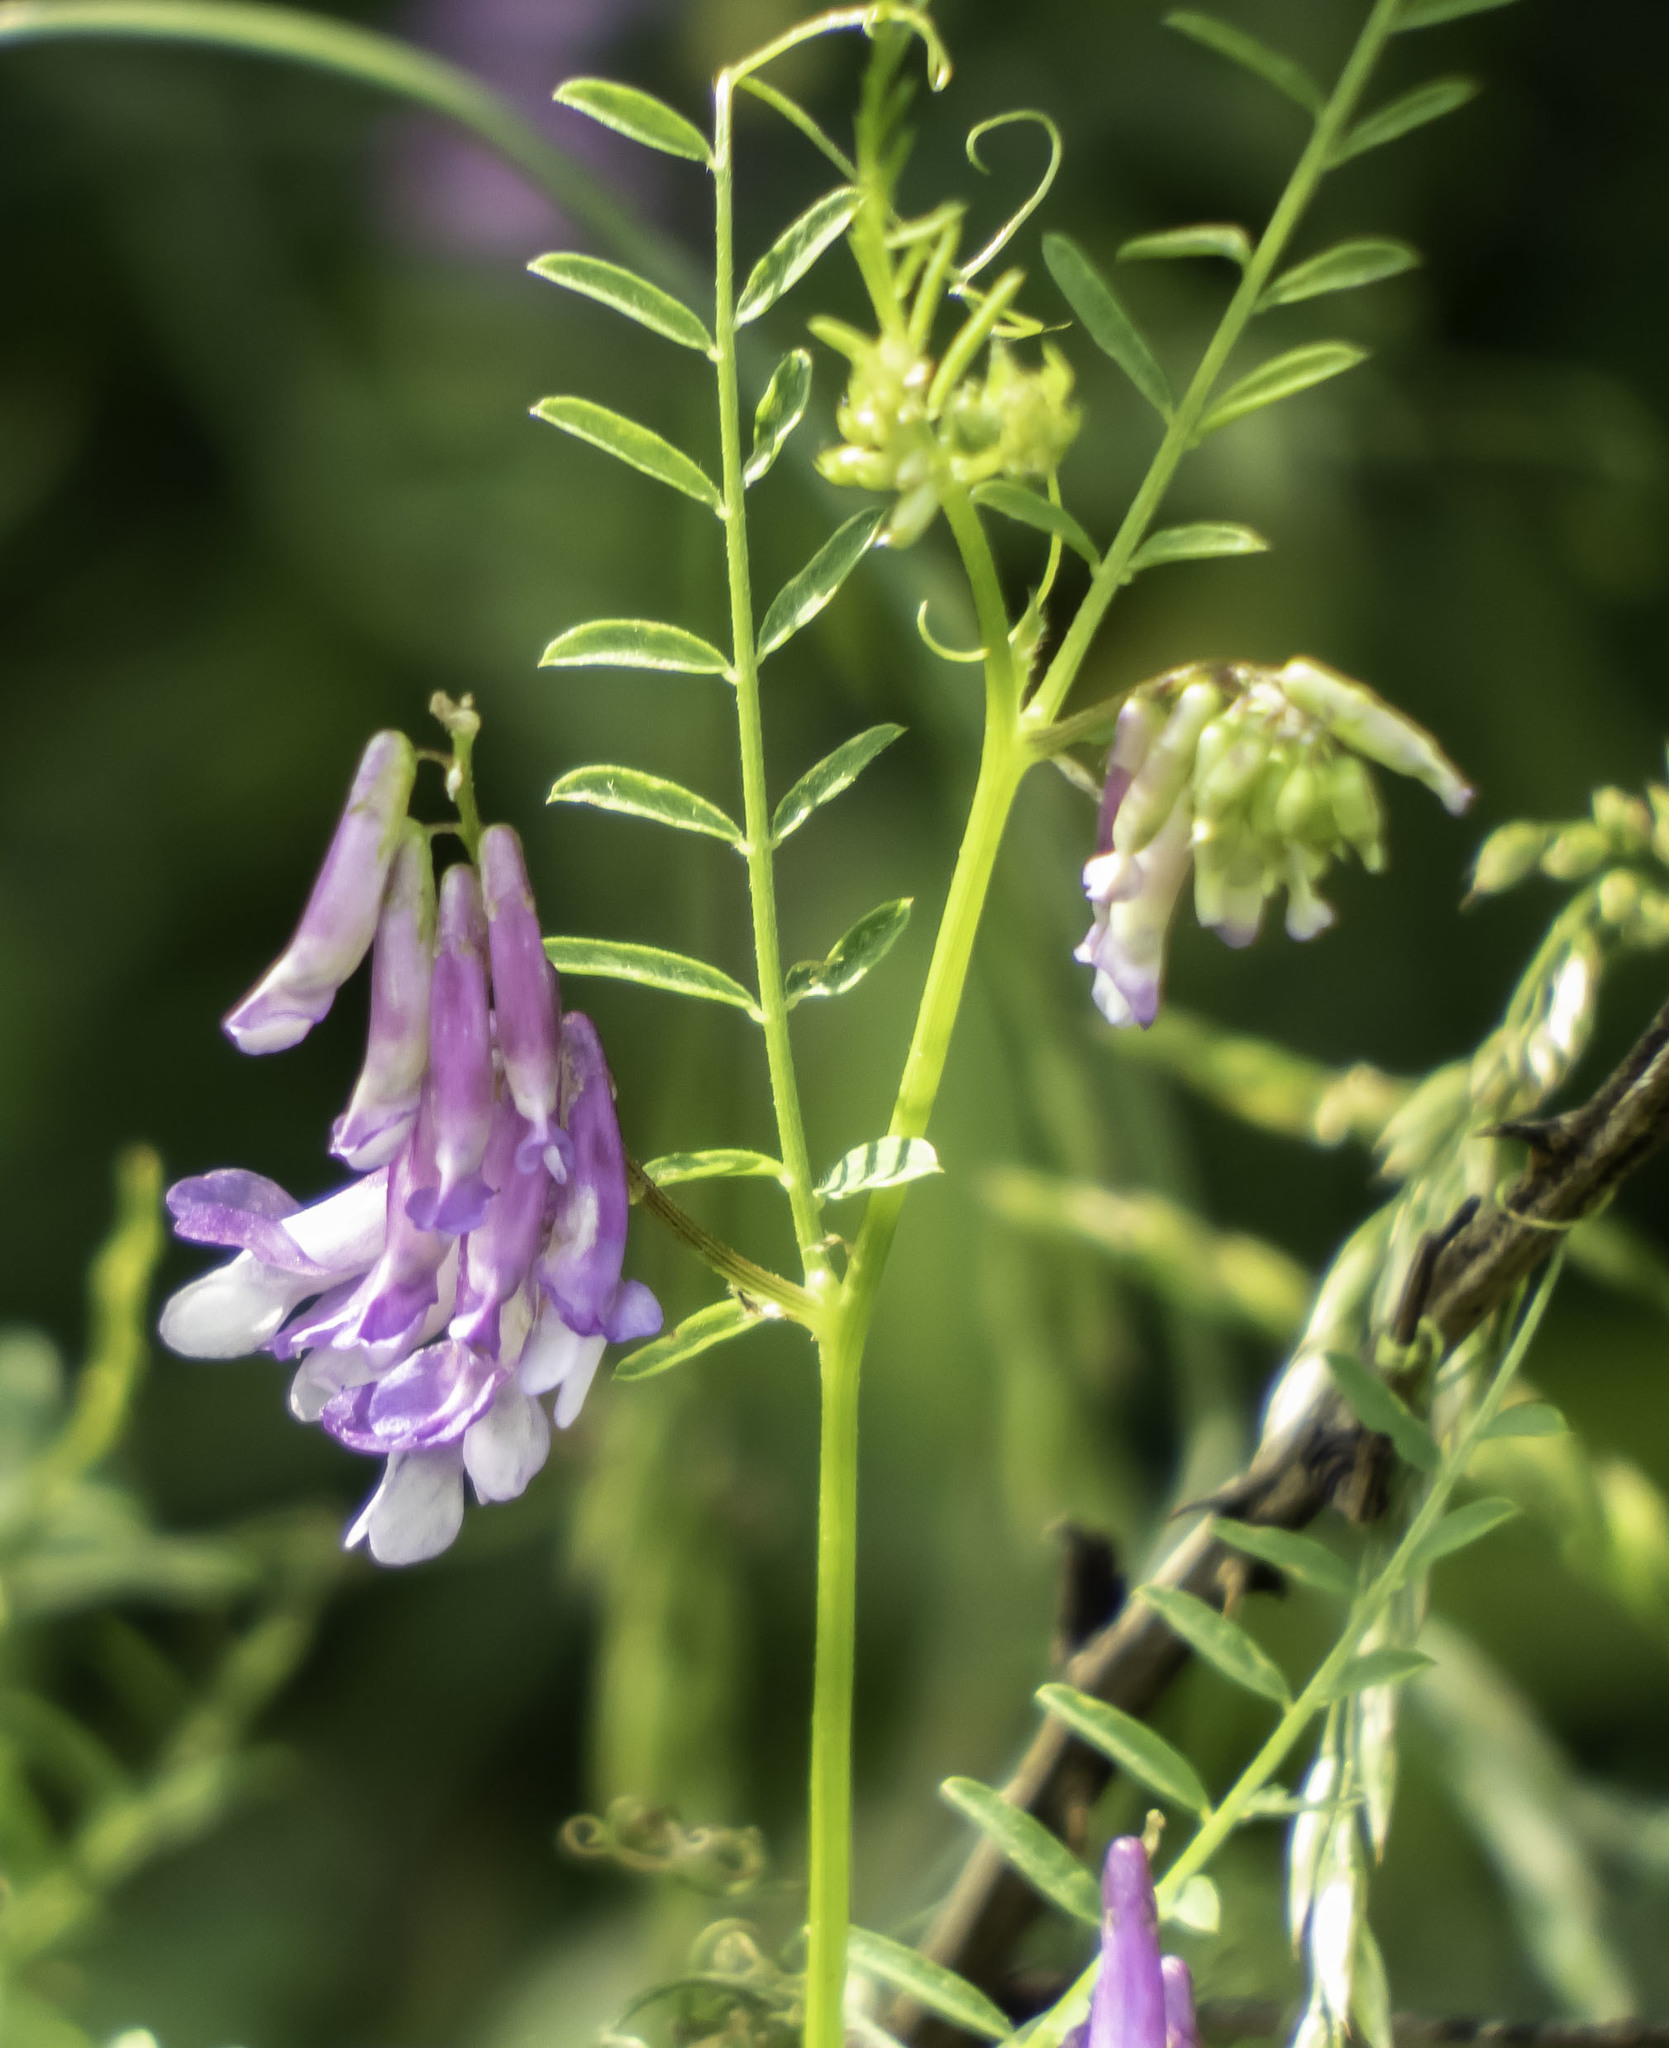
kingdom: Plantae
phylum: Tracheophyta
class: Magnoliopsida
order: Fabales
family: Fabaceae
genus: Vicia
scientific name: Vicia villosa
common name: Fodder vetch
